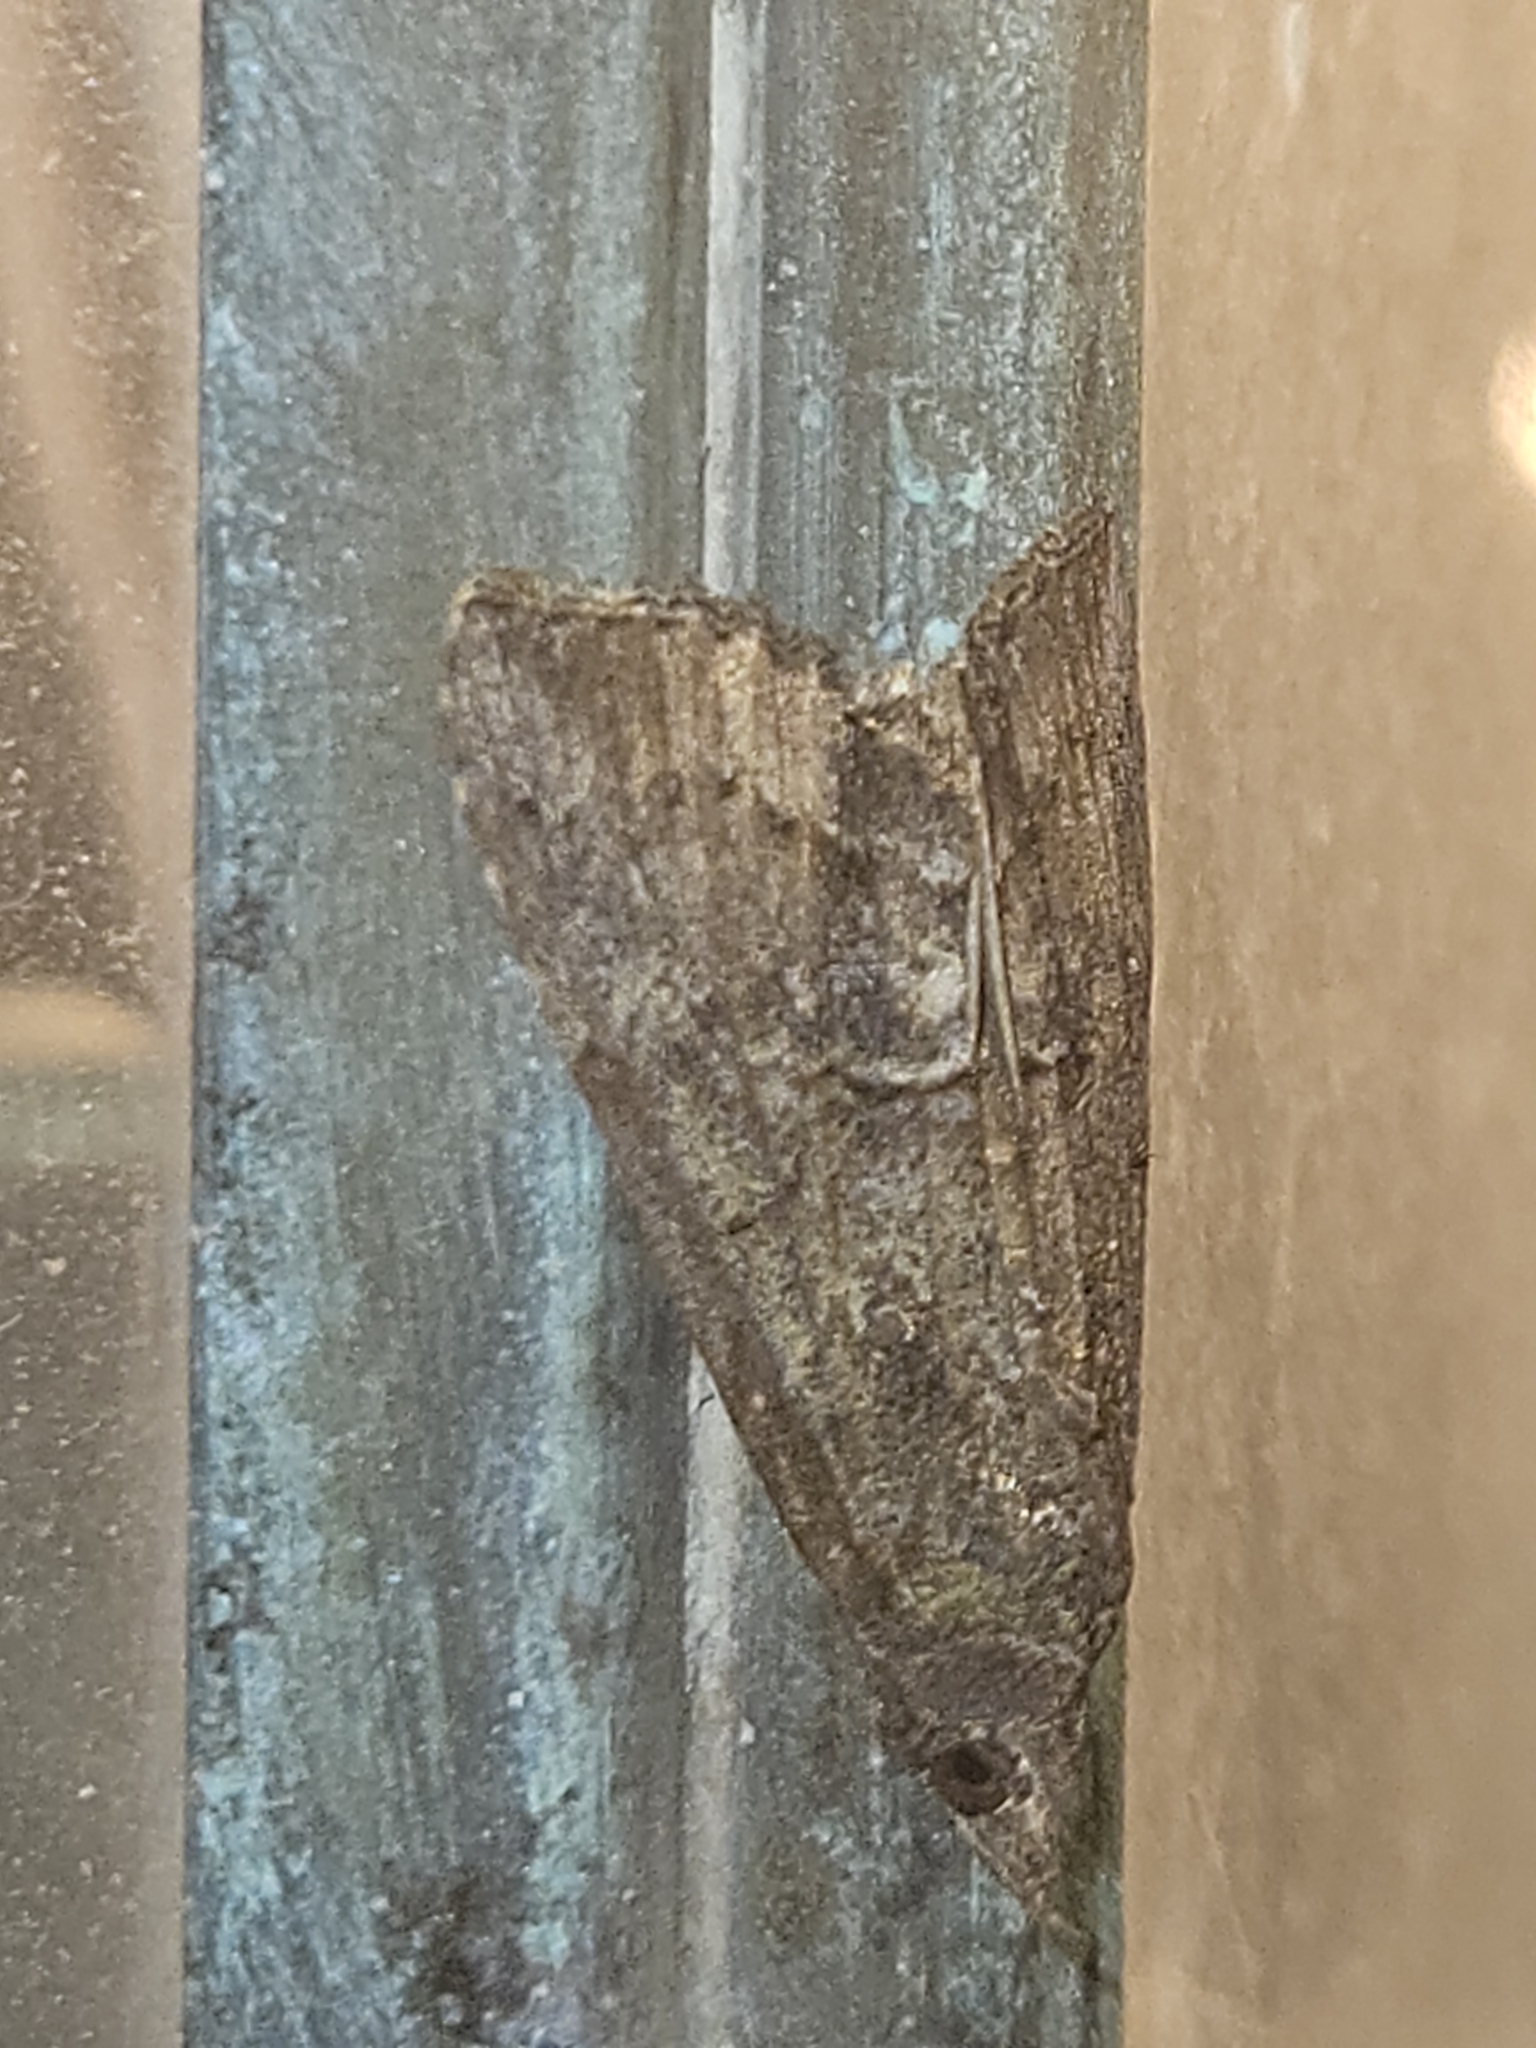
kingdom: Animalia
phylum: Arthropoda
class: Insecta
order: Lepidoptera
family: Erebidae
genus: Hypena
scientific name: Hypena scabra
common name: Green cloverworm
